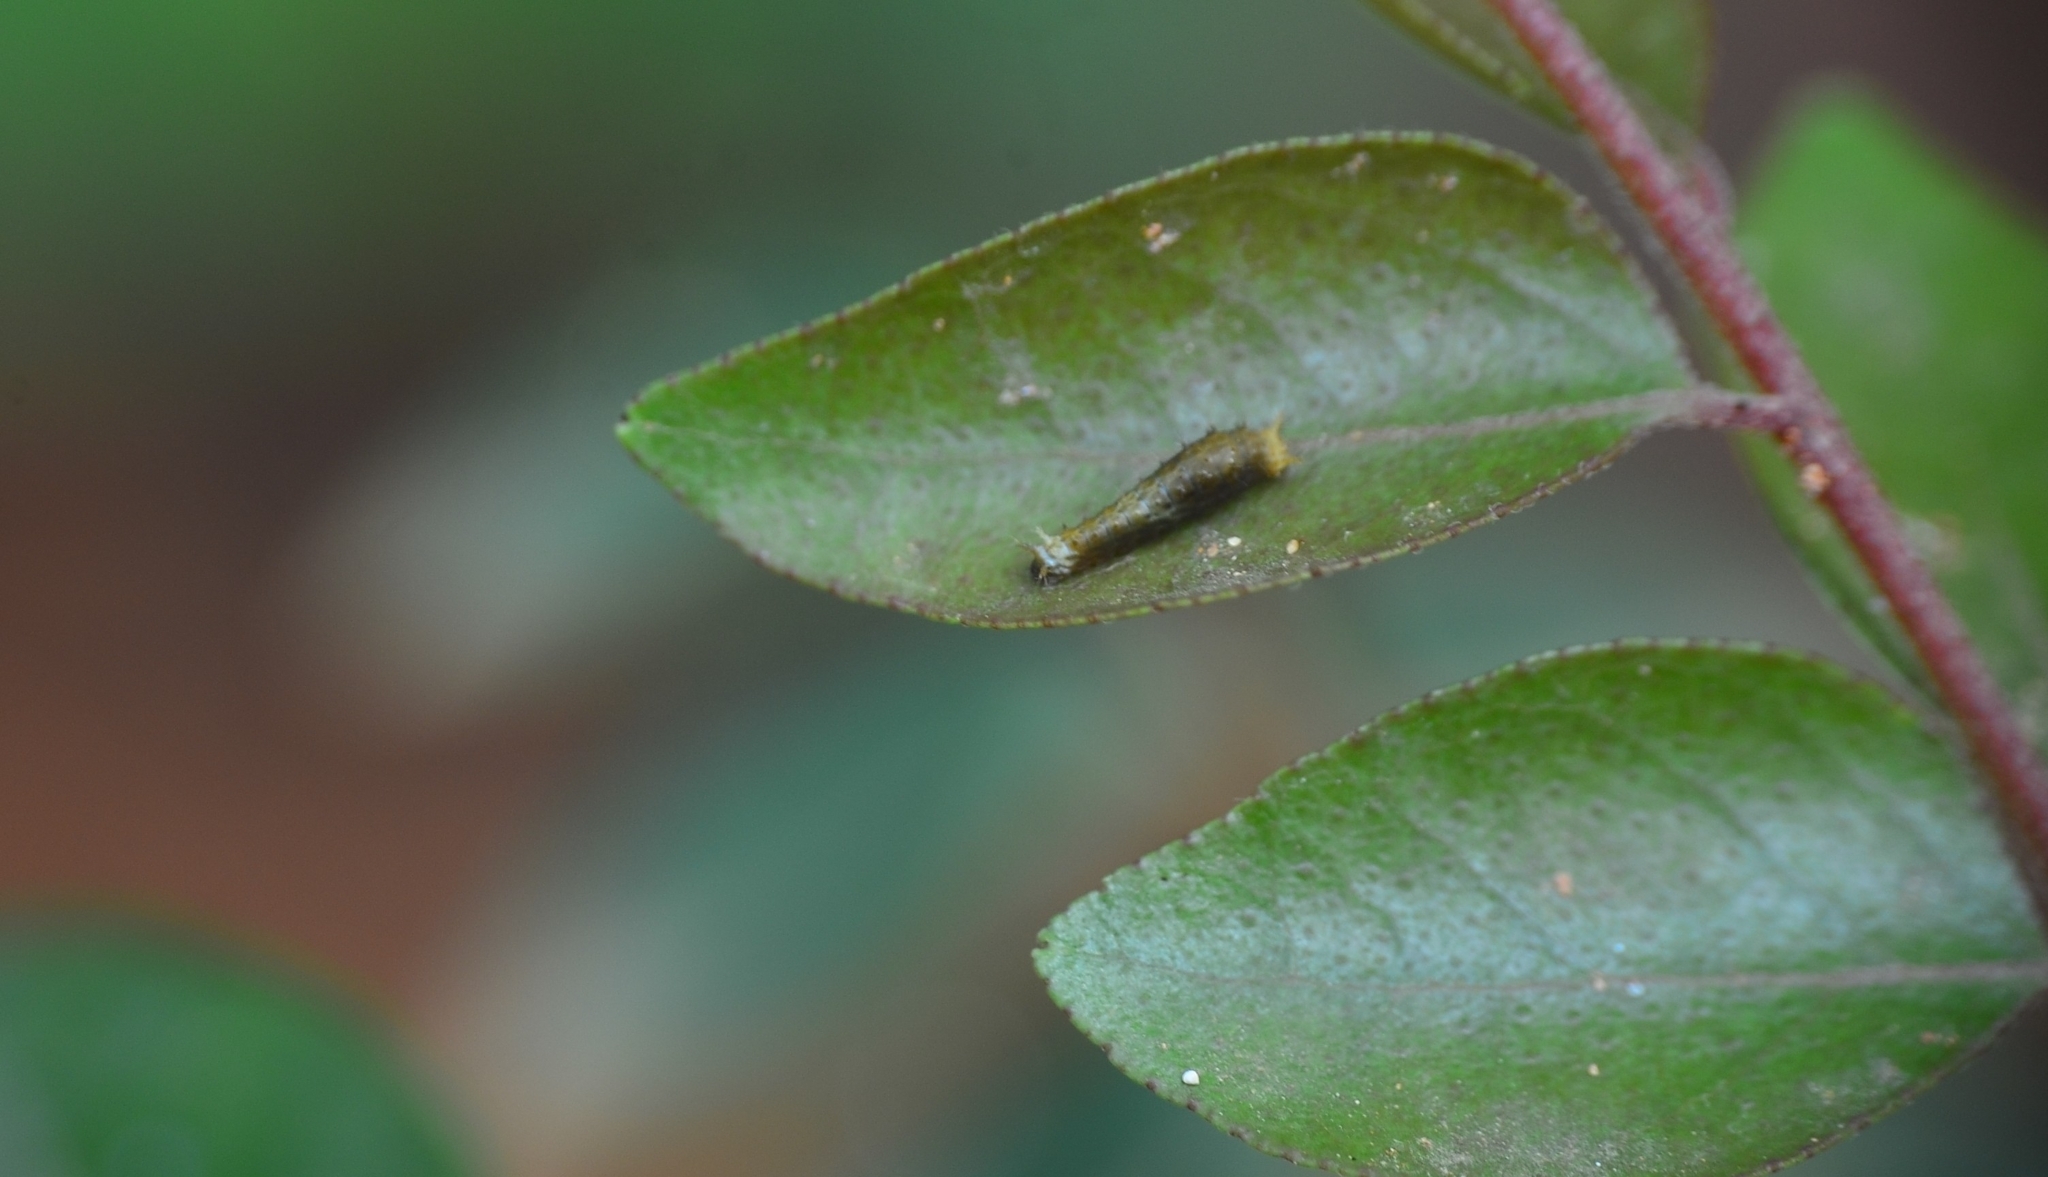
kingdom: Animalia
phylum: Arthropoda
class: Insecta
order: Lepidoptera
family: Papilionidae
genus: Papilio
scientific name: Papilio polytes
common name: Common mormon
